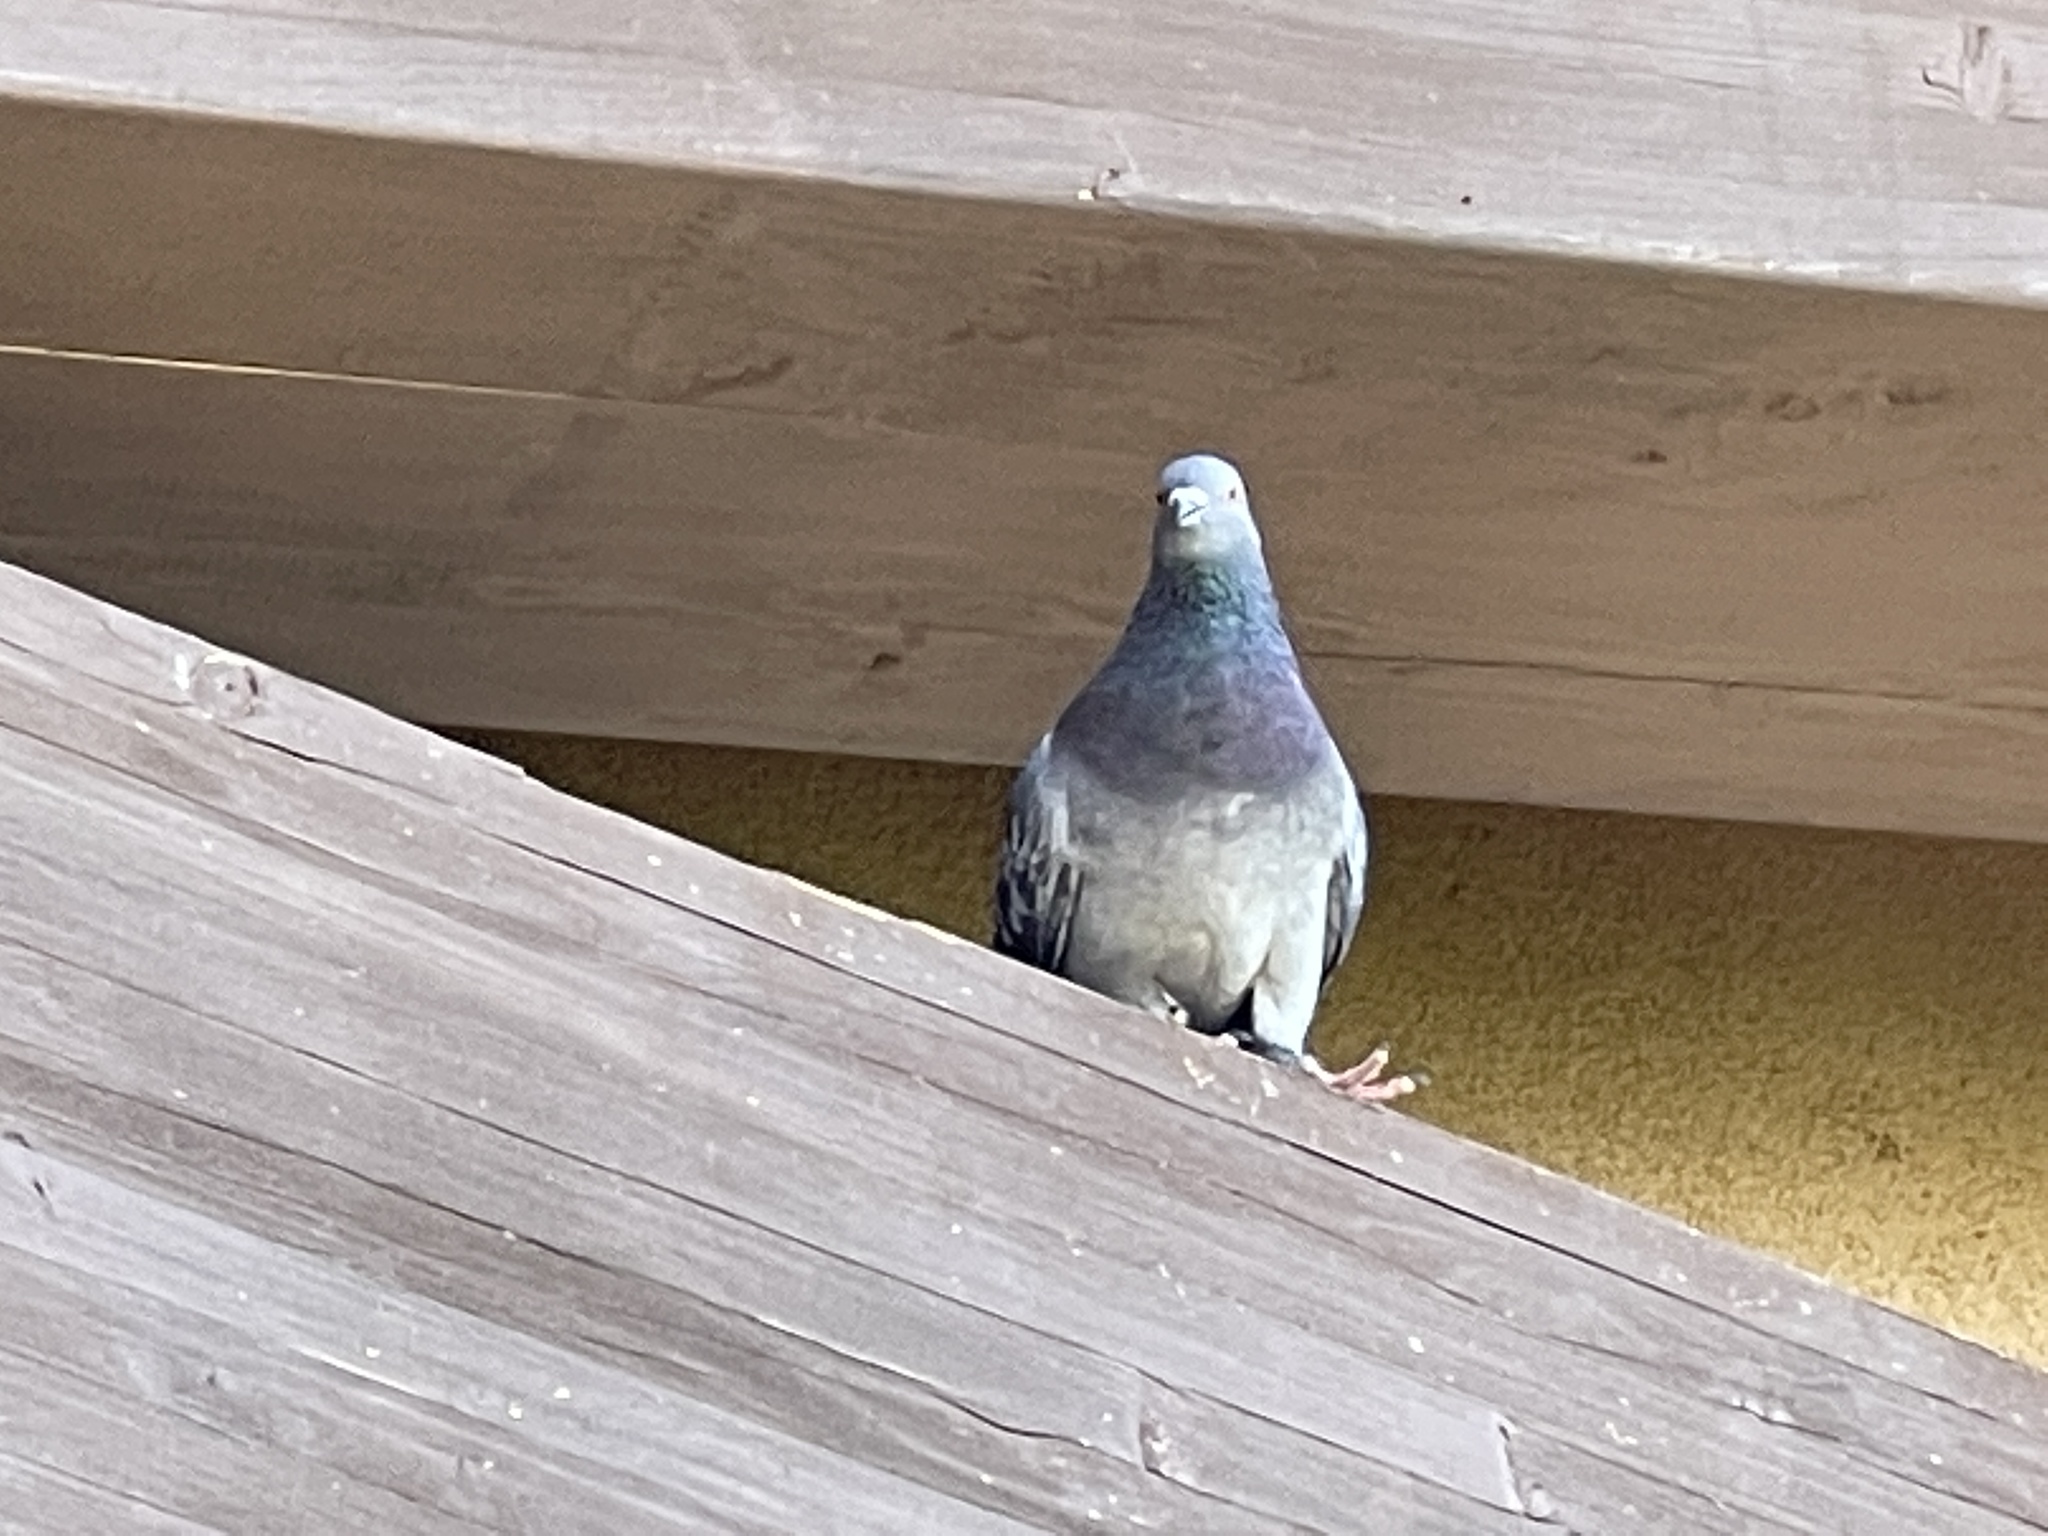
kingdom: Animalia
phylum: Chordata
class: Aves
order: Columbiformes
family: Columbidae
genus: Columba
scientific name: Columba livia
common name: Rock pigeon
